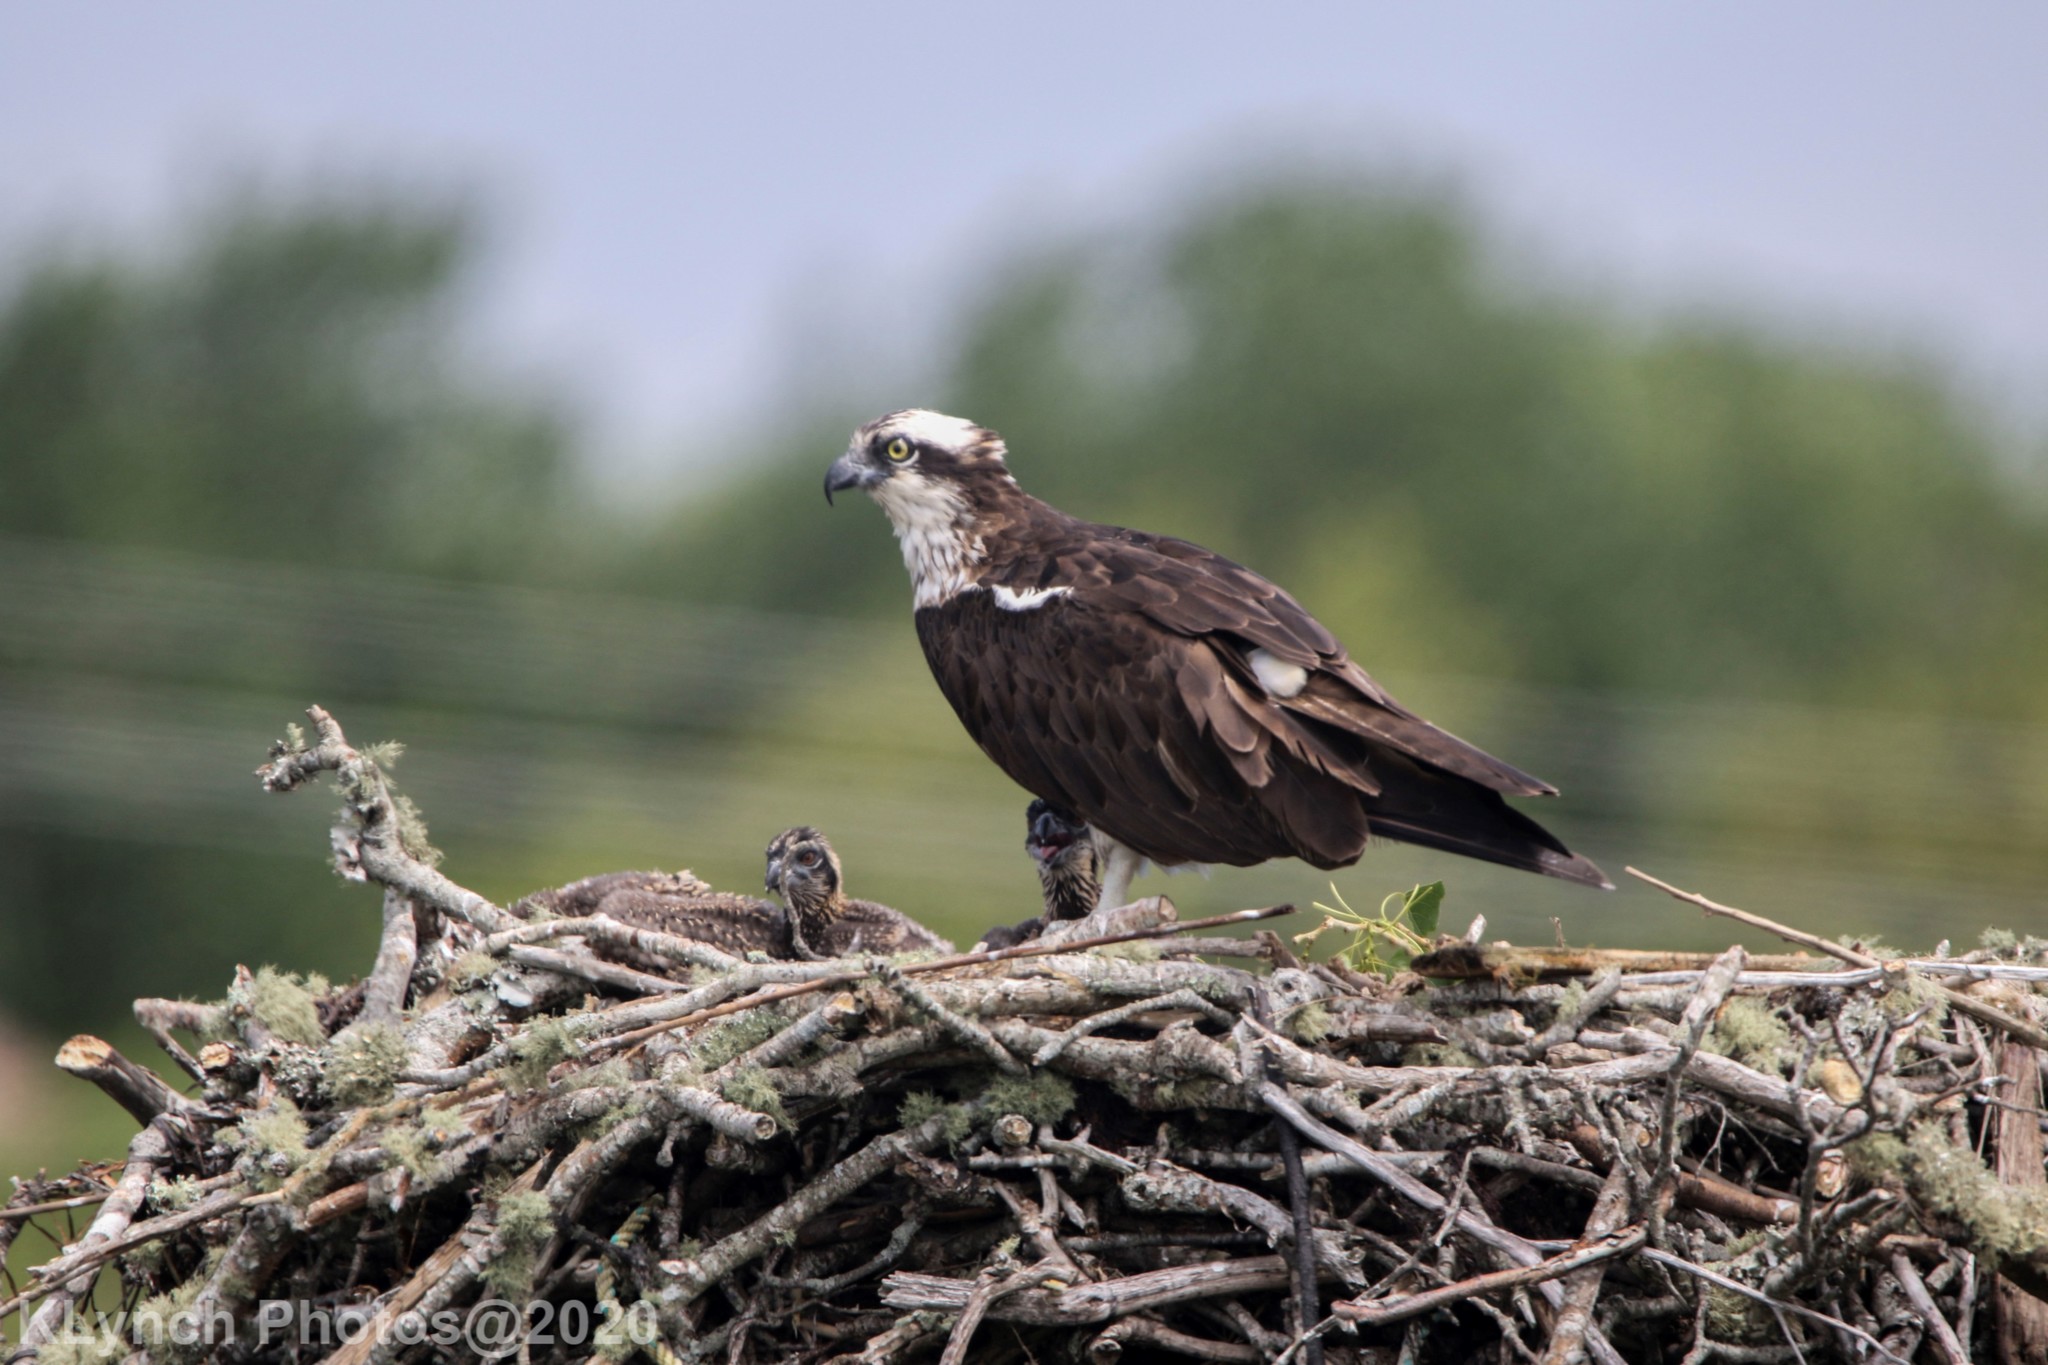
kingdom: Animalia
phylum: Chordata
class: Aves
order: Accipitriformes
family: Pandionidae
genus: Pandion
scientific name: Pandion haliaetus
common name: Osprey
